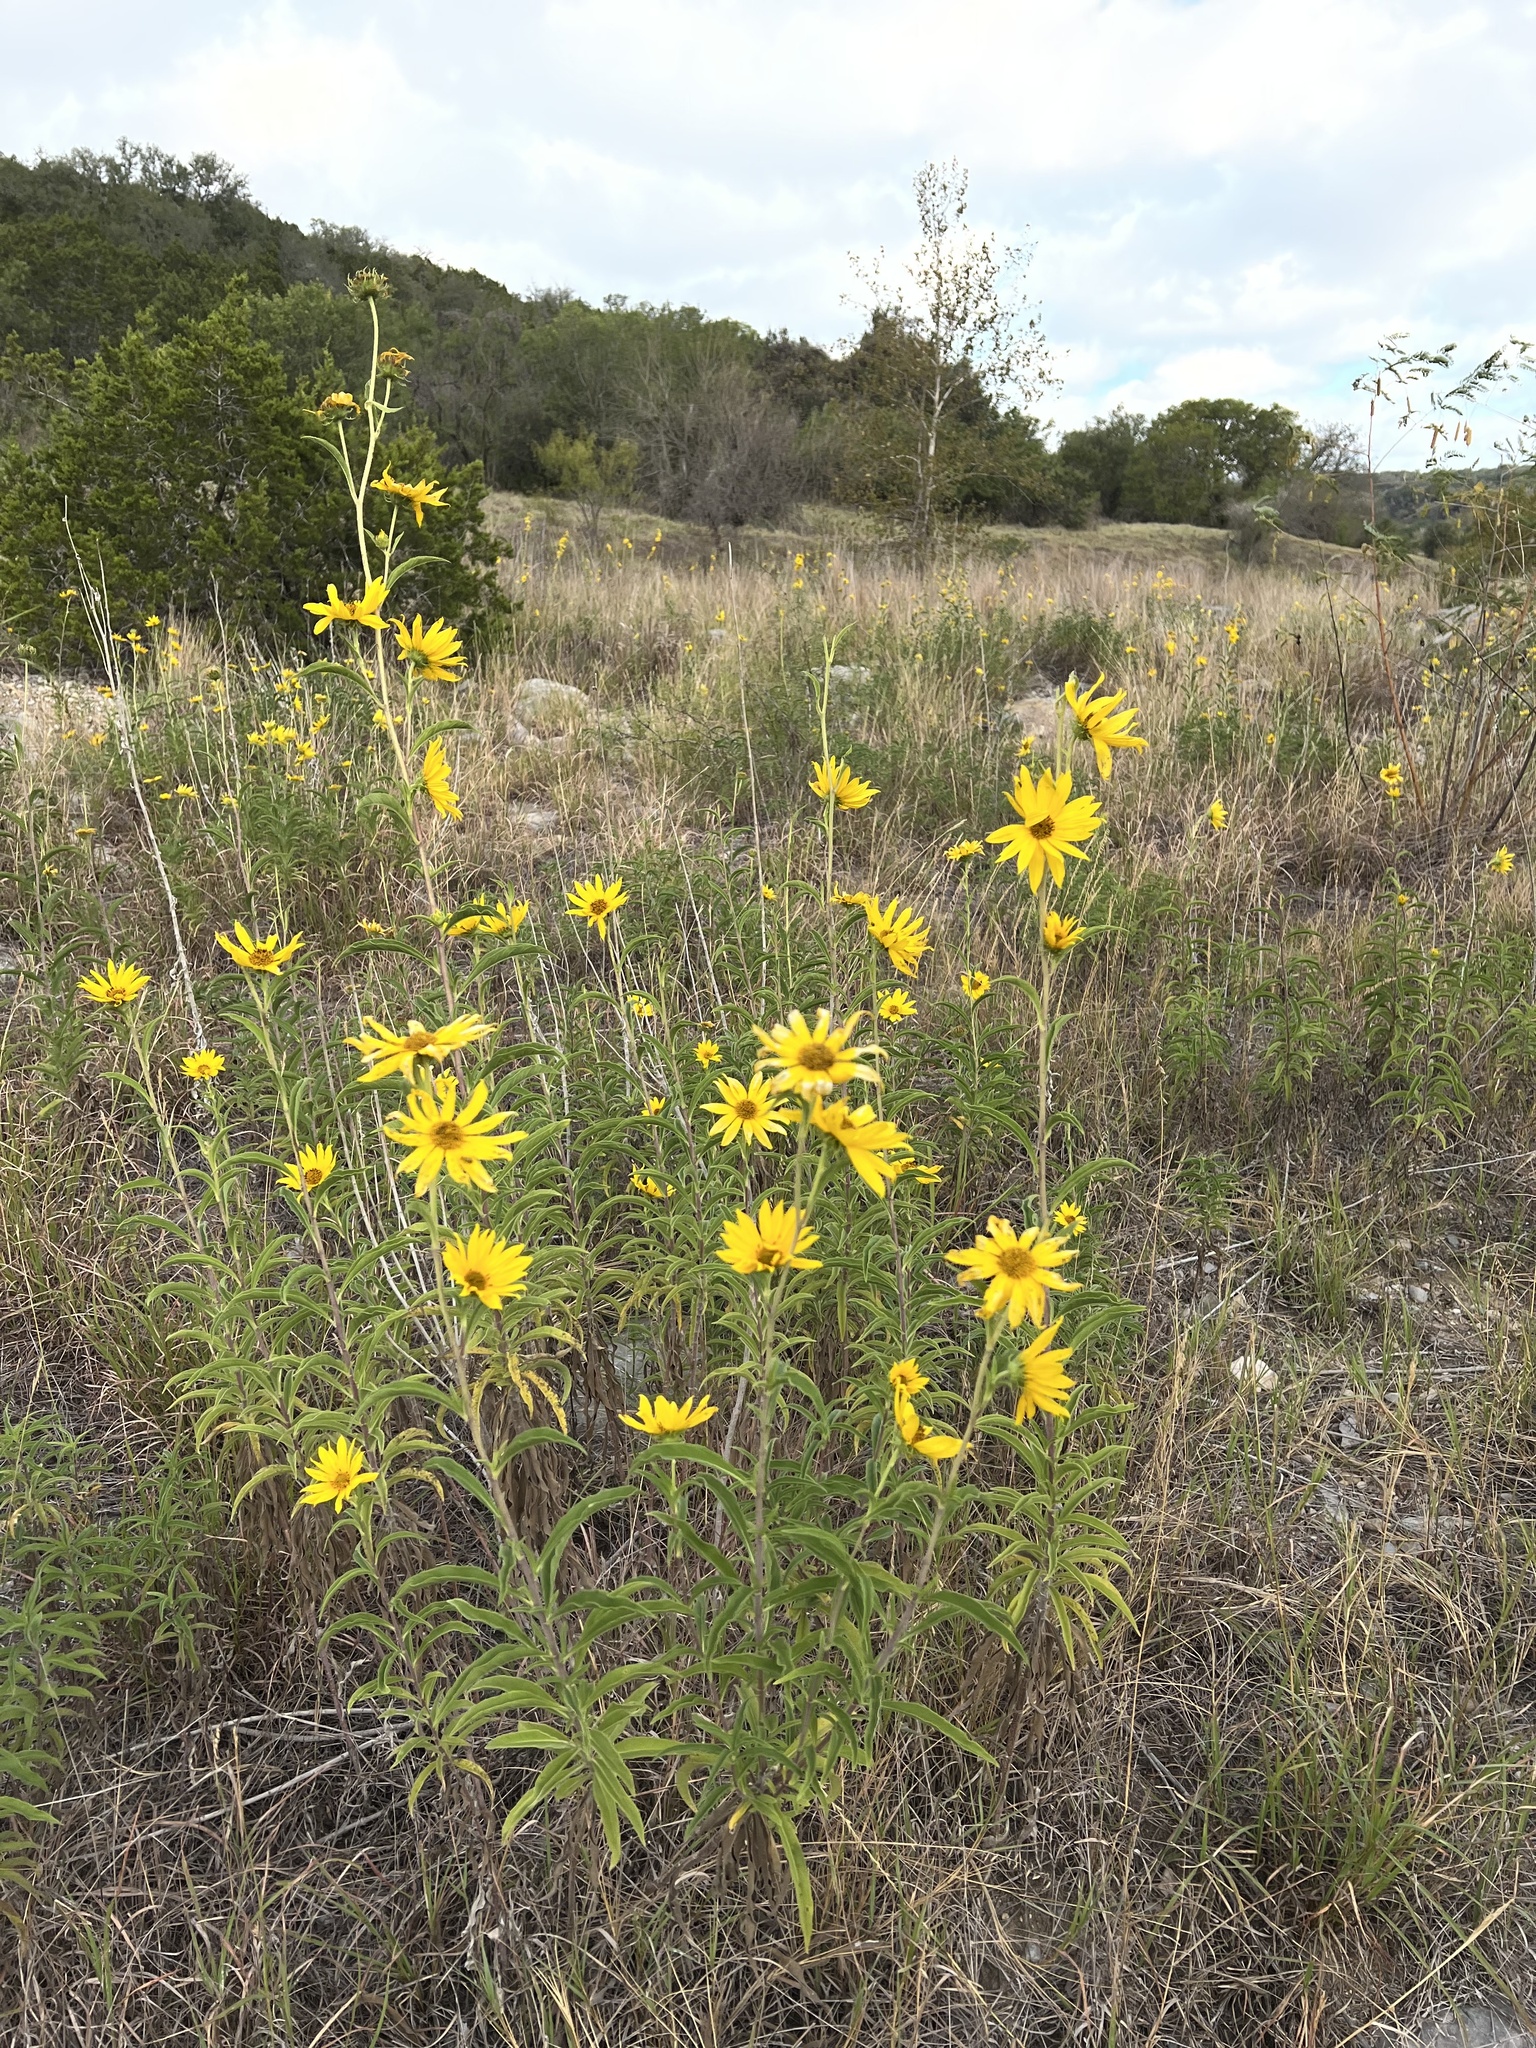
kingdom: Plantae
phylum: Tracheophyta
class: Magnoliopsida
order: Asterales
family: Asteraceae
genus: Helianthus
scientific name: Helianthus maximiliani
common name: Maximilian's sunflower
